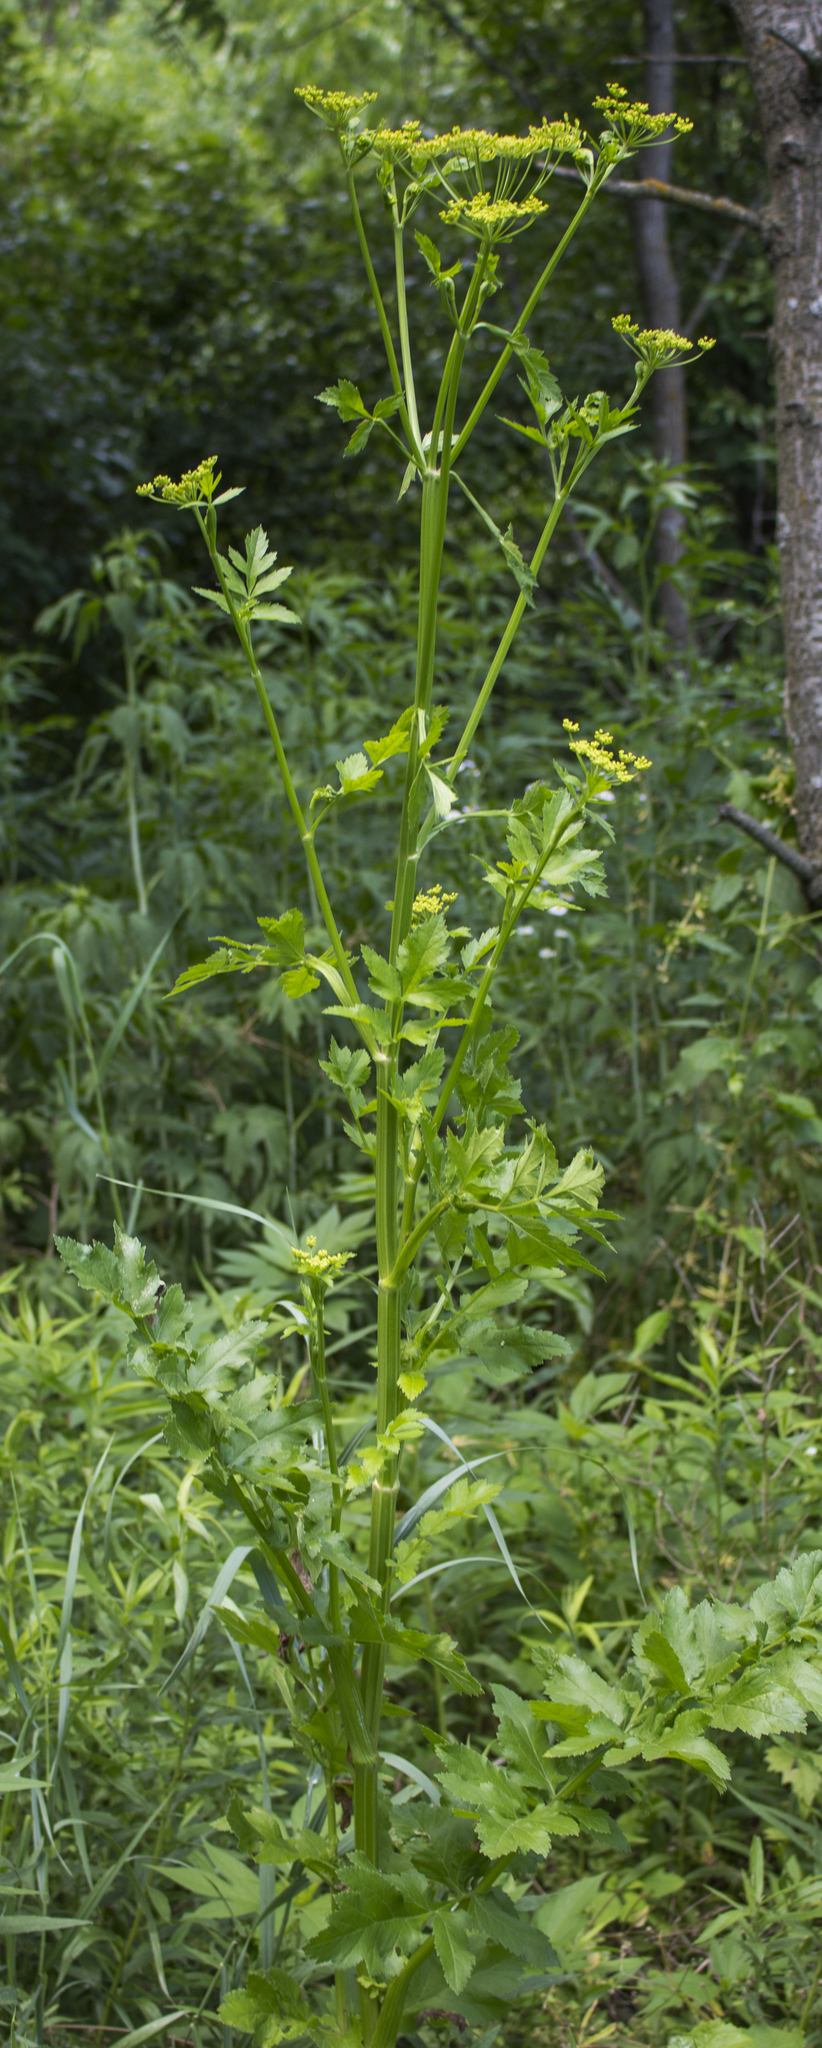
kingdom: Plantae
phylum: Tracheophyta
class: Magnoliopsida
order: Apiales
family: Apiaceae
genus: Pastinaca
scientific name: Pastinaca sativa
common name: Wild parsnip
